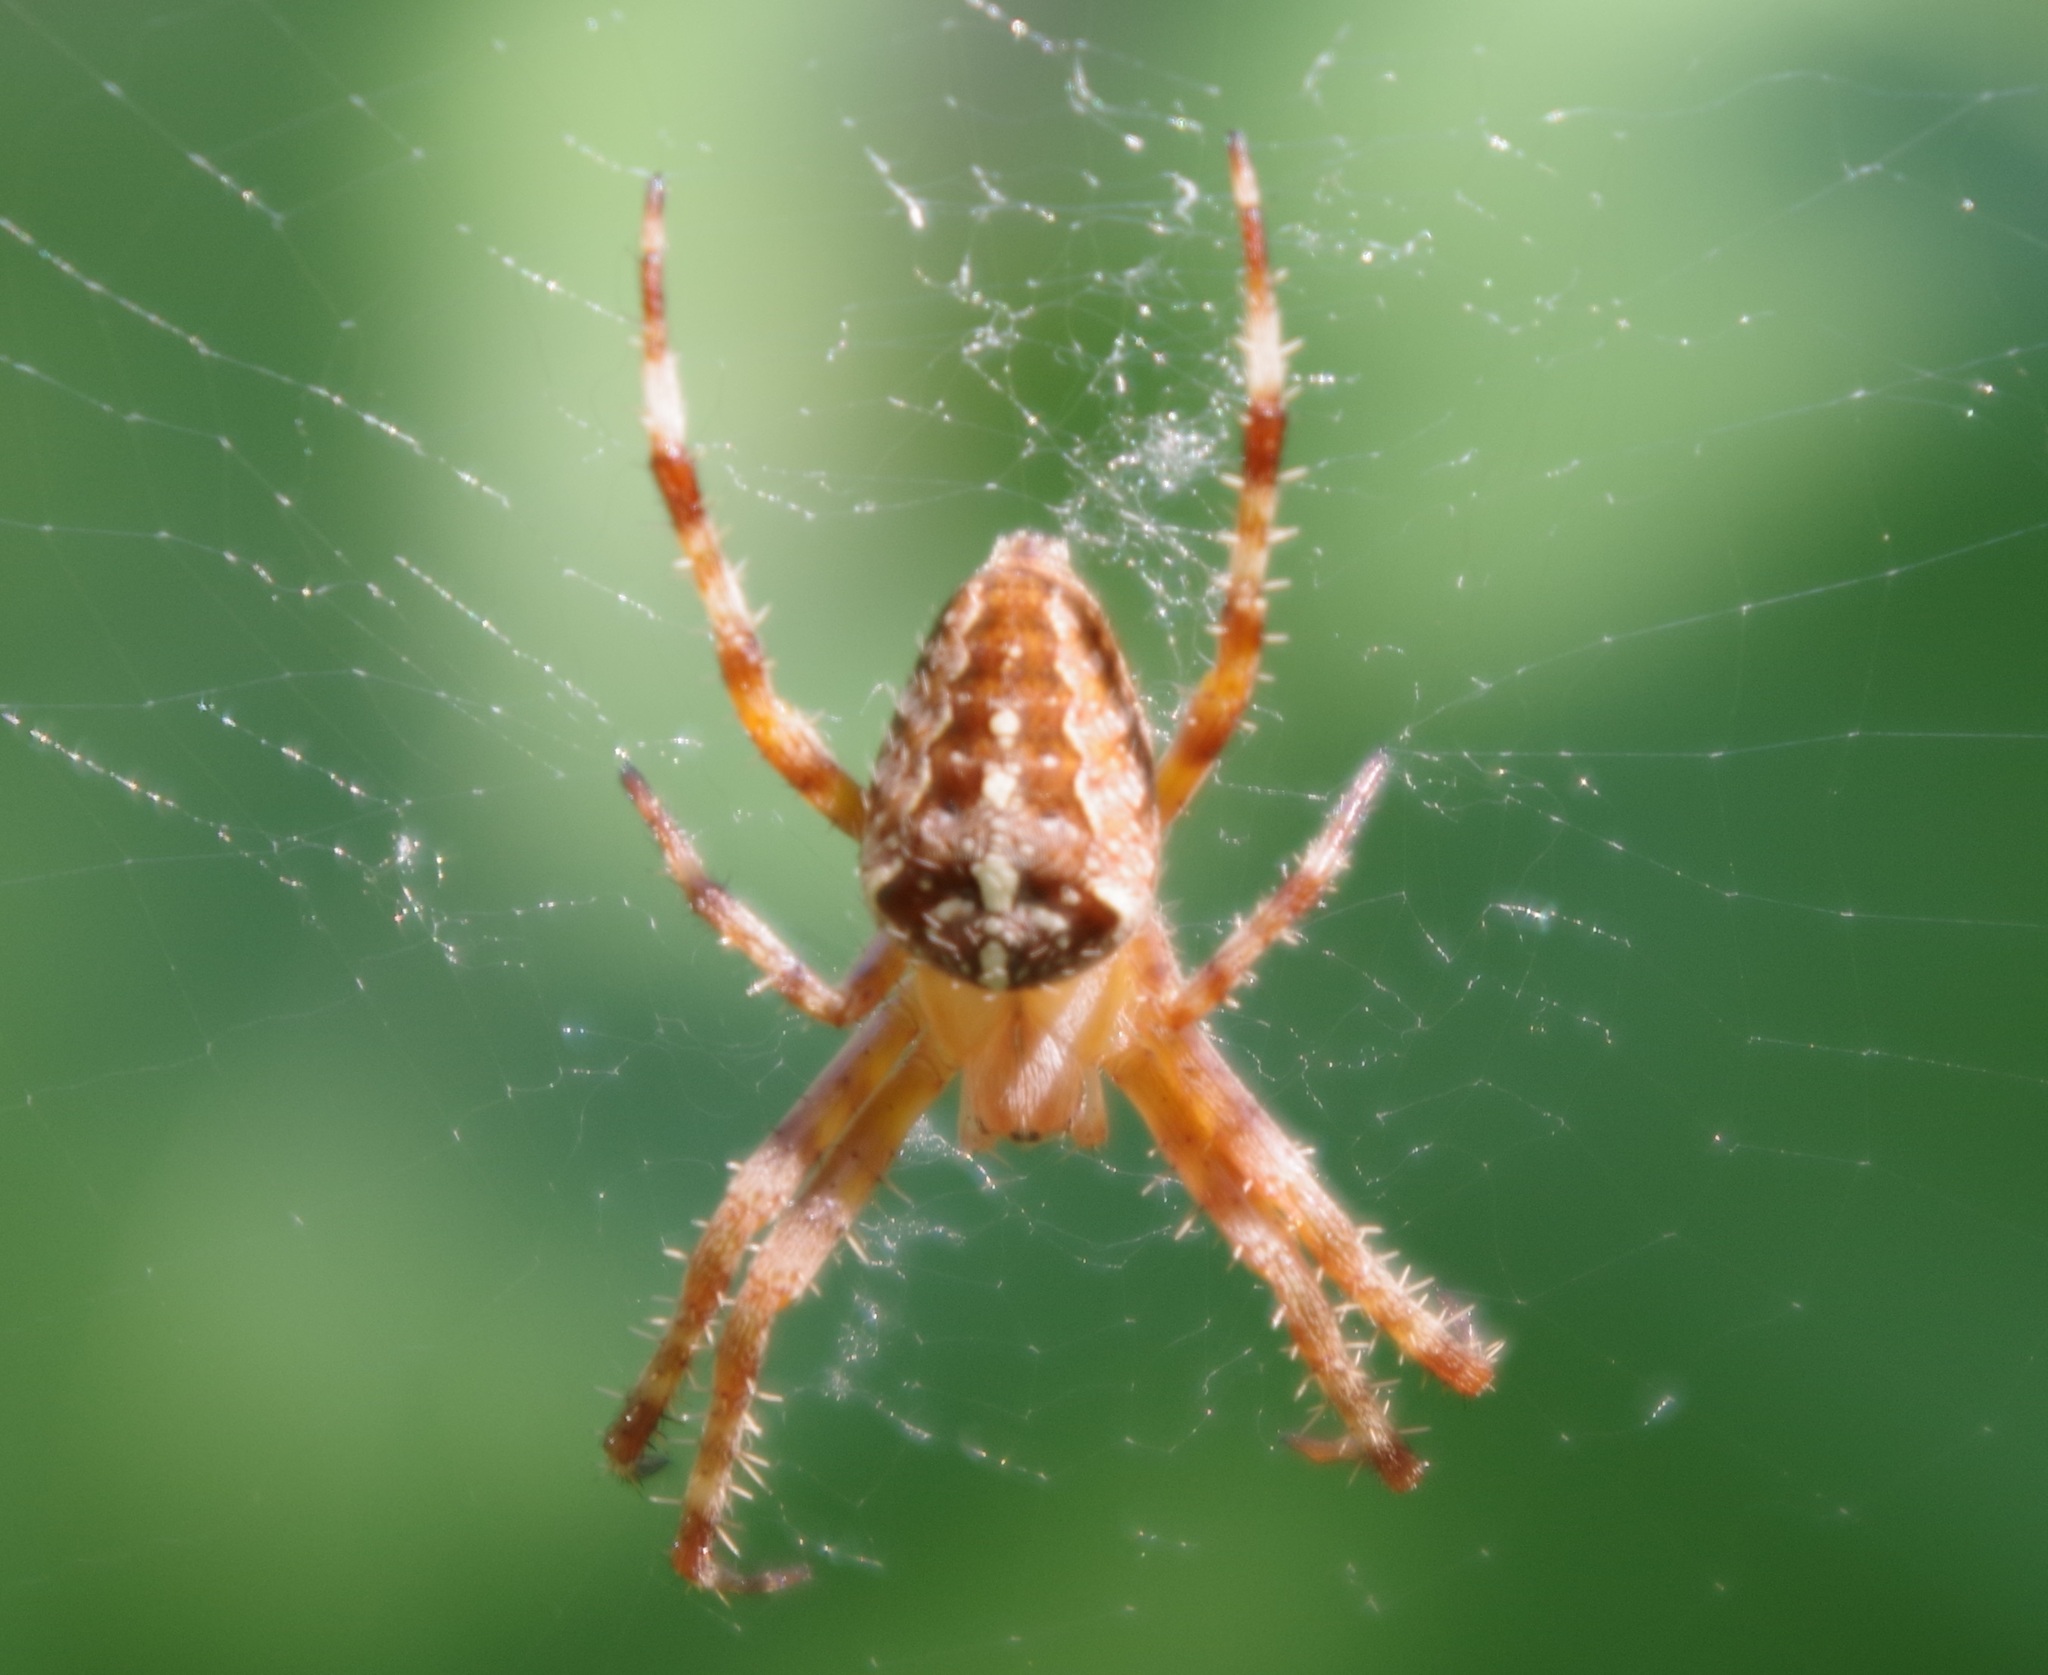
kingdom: Animalia
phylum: Arthropoda
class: Arachnida
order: Araneae
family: Araneidae
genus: Araneus
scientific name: Araneus diadematus
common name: Cross orbweaver
